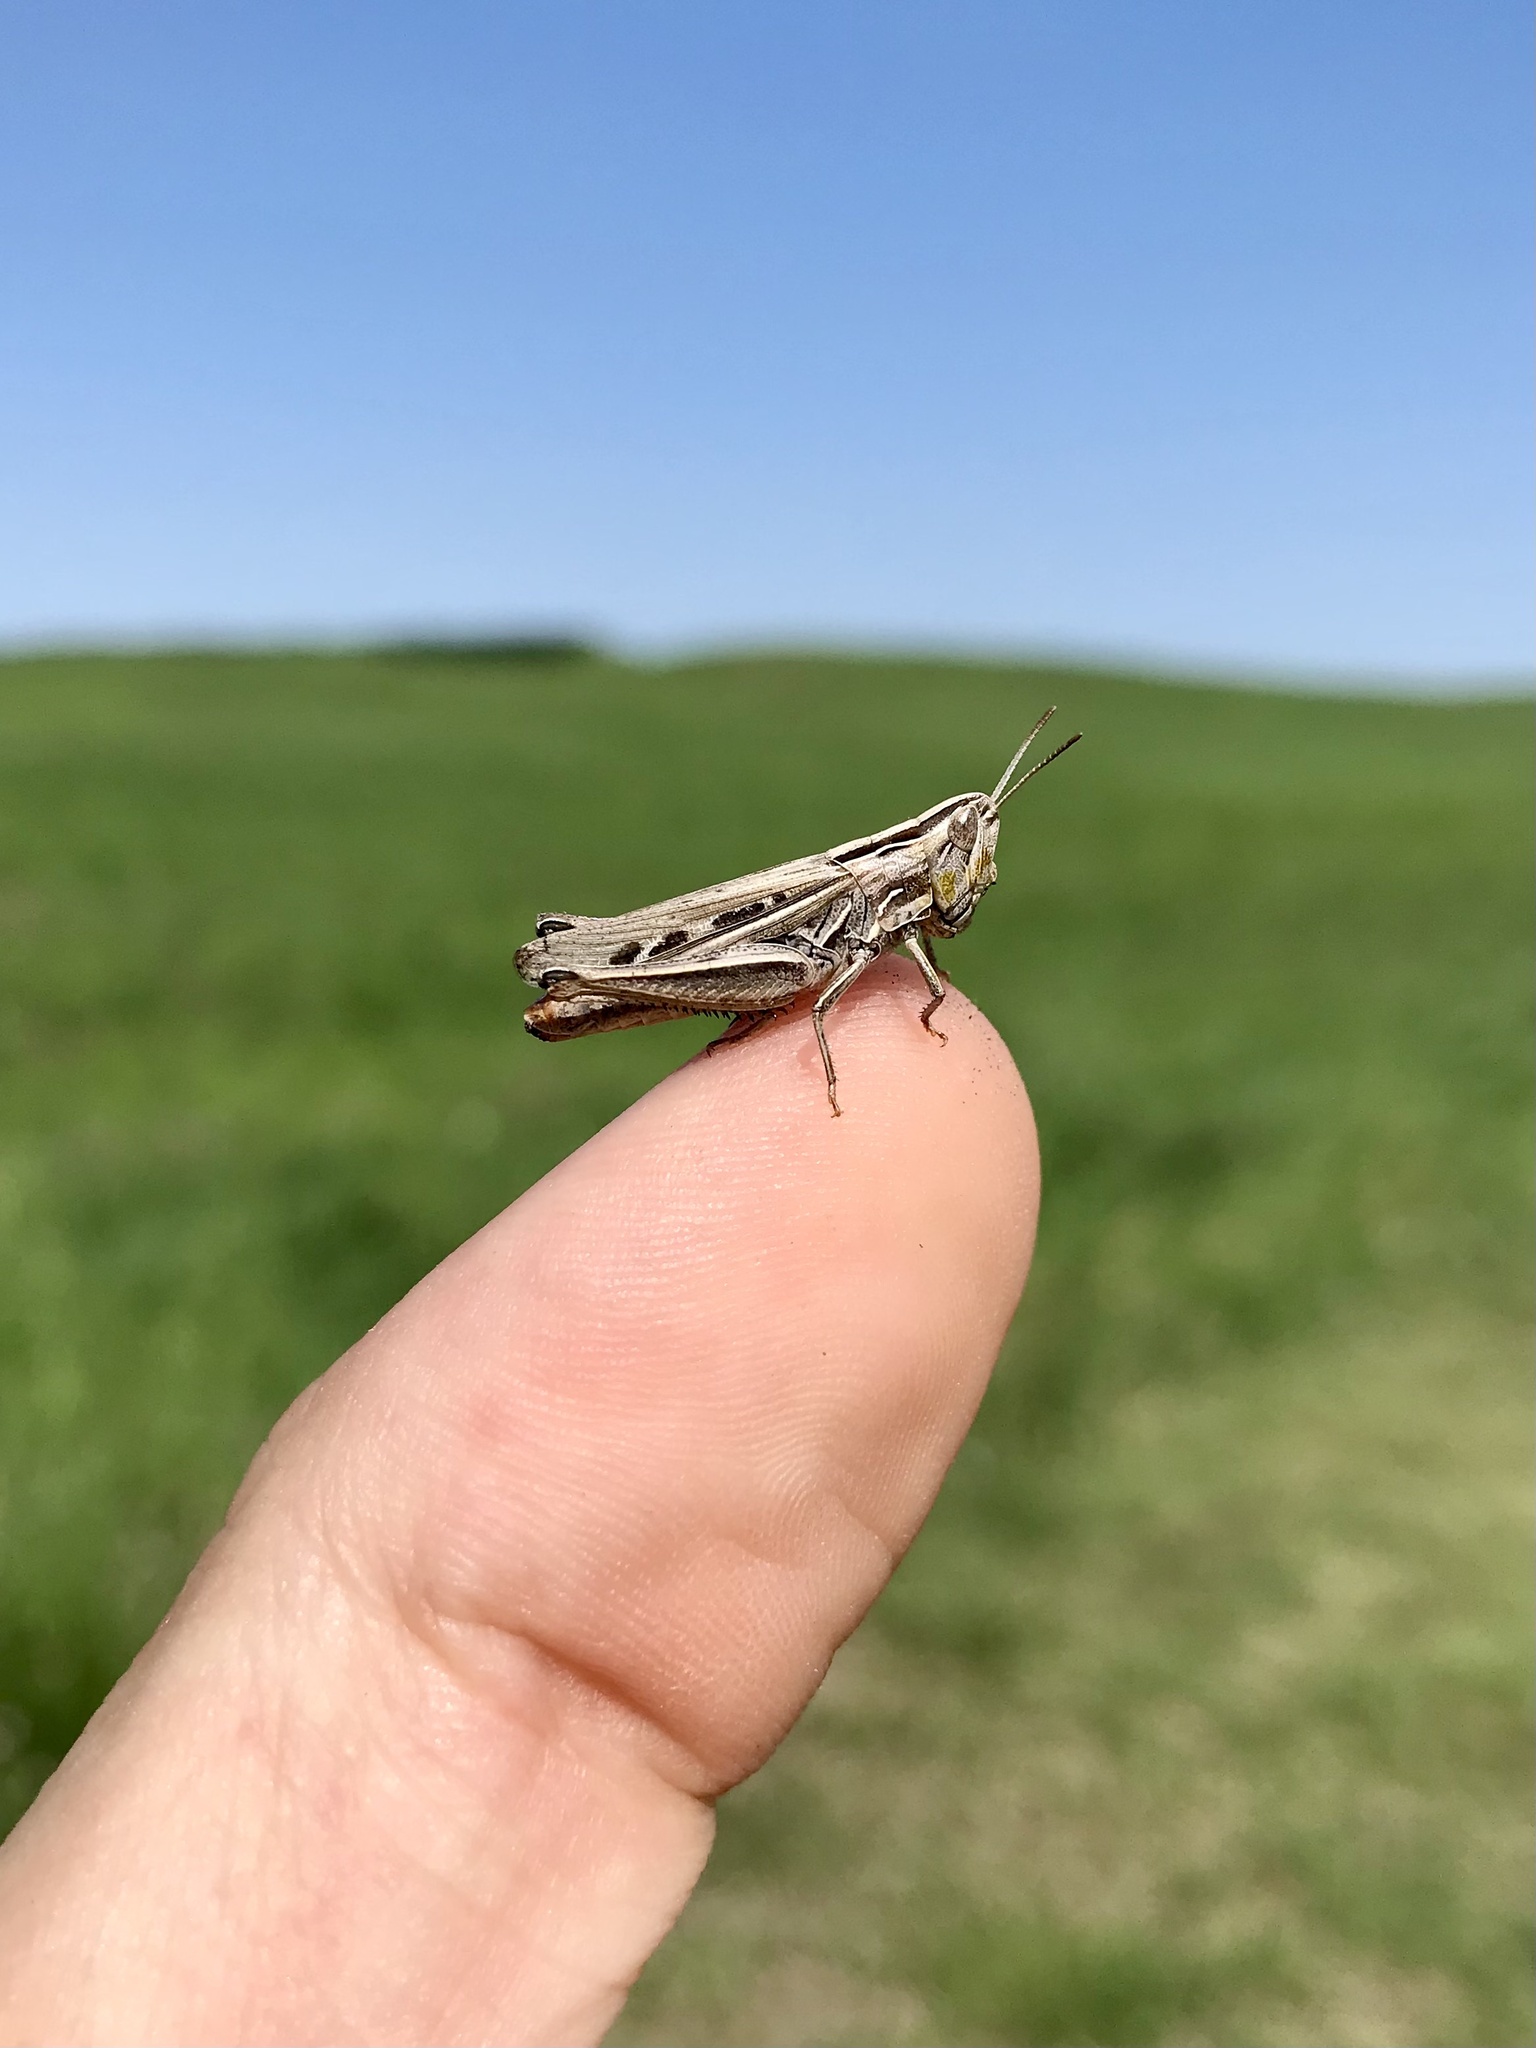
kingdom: Animalia
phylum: Arthropoda
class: Insecta
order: Orthoptera
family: Acrididae
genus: Eritettix
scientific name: Eritettix simplex
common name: Velvet-striped grasshopper
